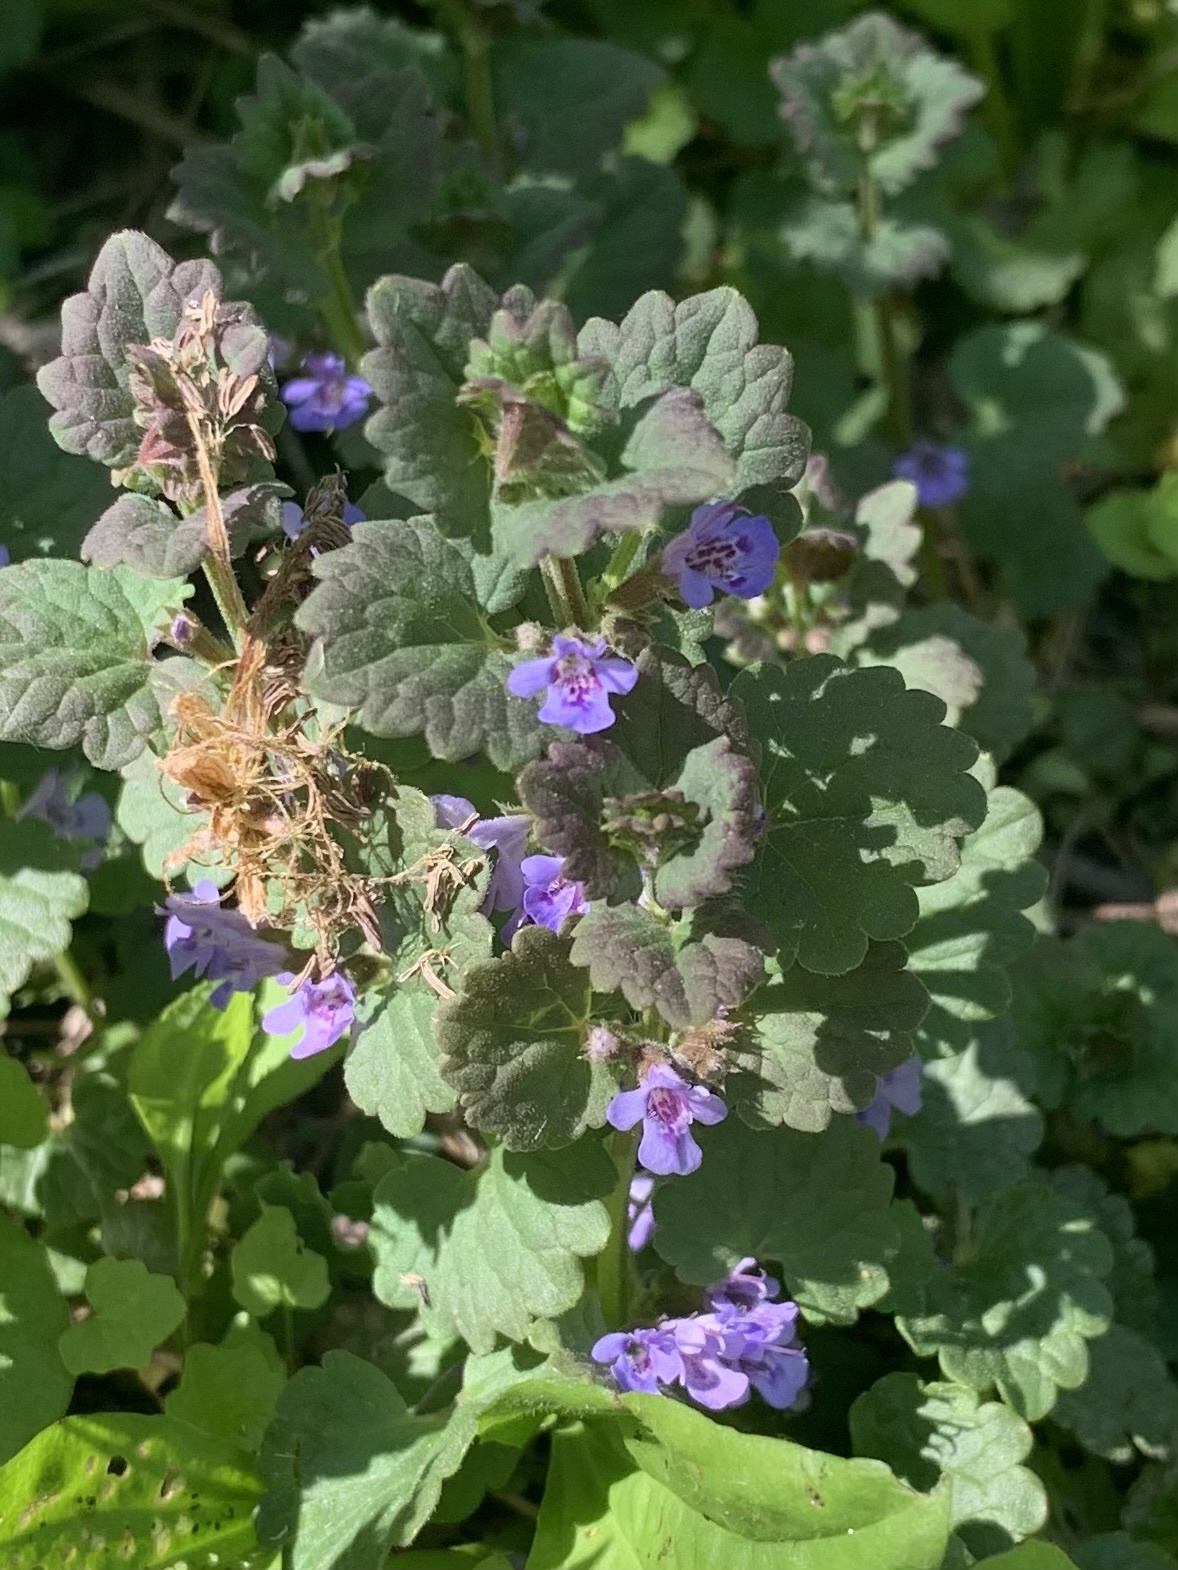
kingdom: Plantae
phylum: Tracheophyta
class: Magnoliopsida
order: Lamiales
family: Lamiaceae
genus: Glechoma
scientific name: Glechoma hederacea
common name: Ground ivy
